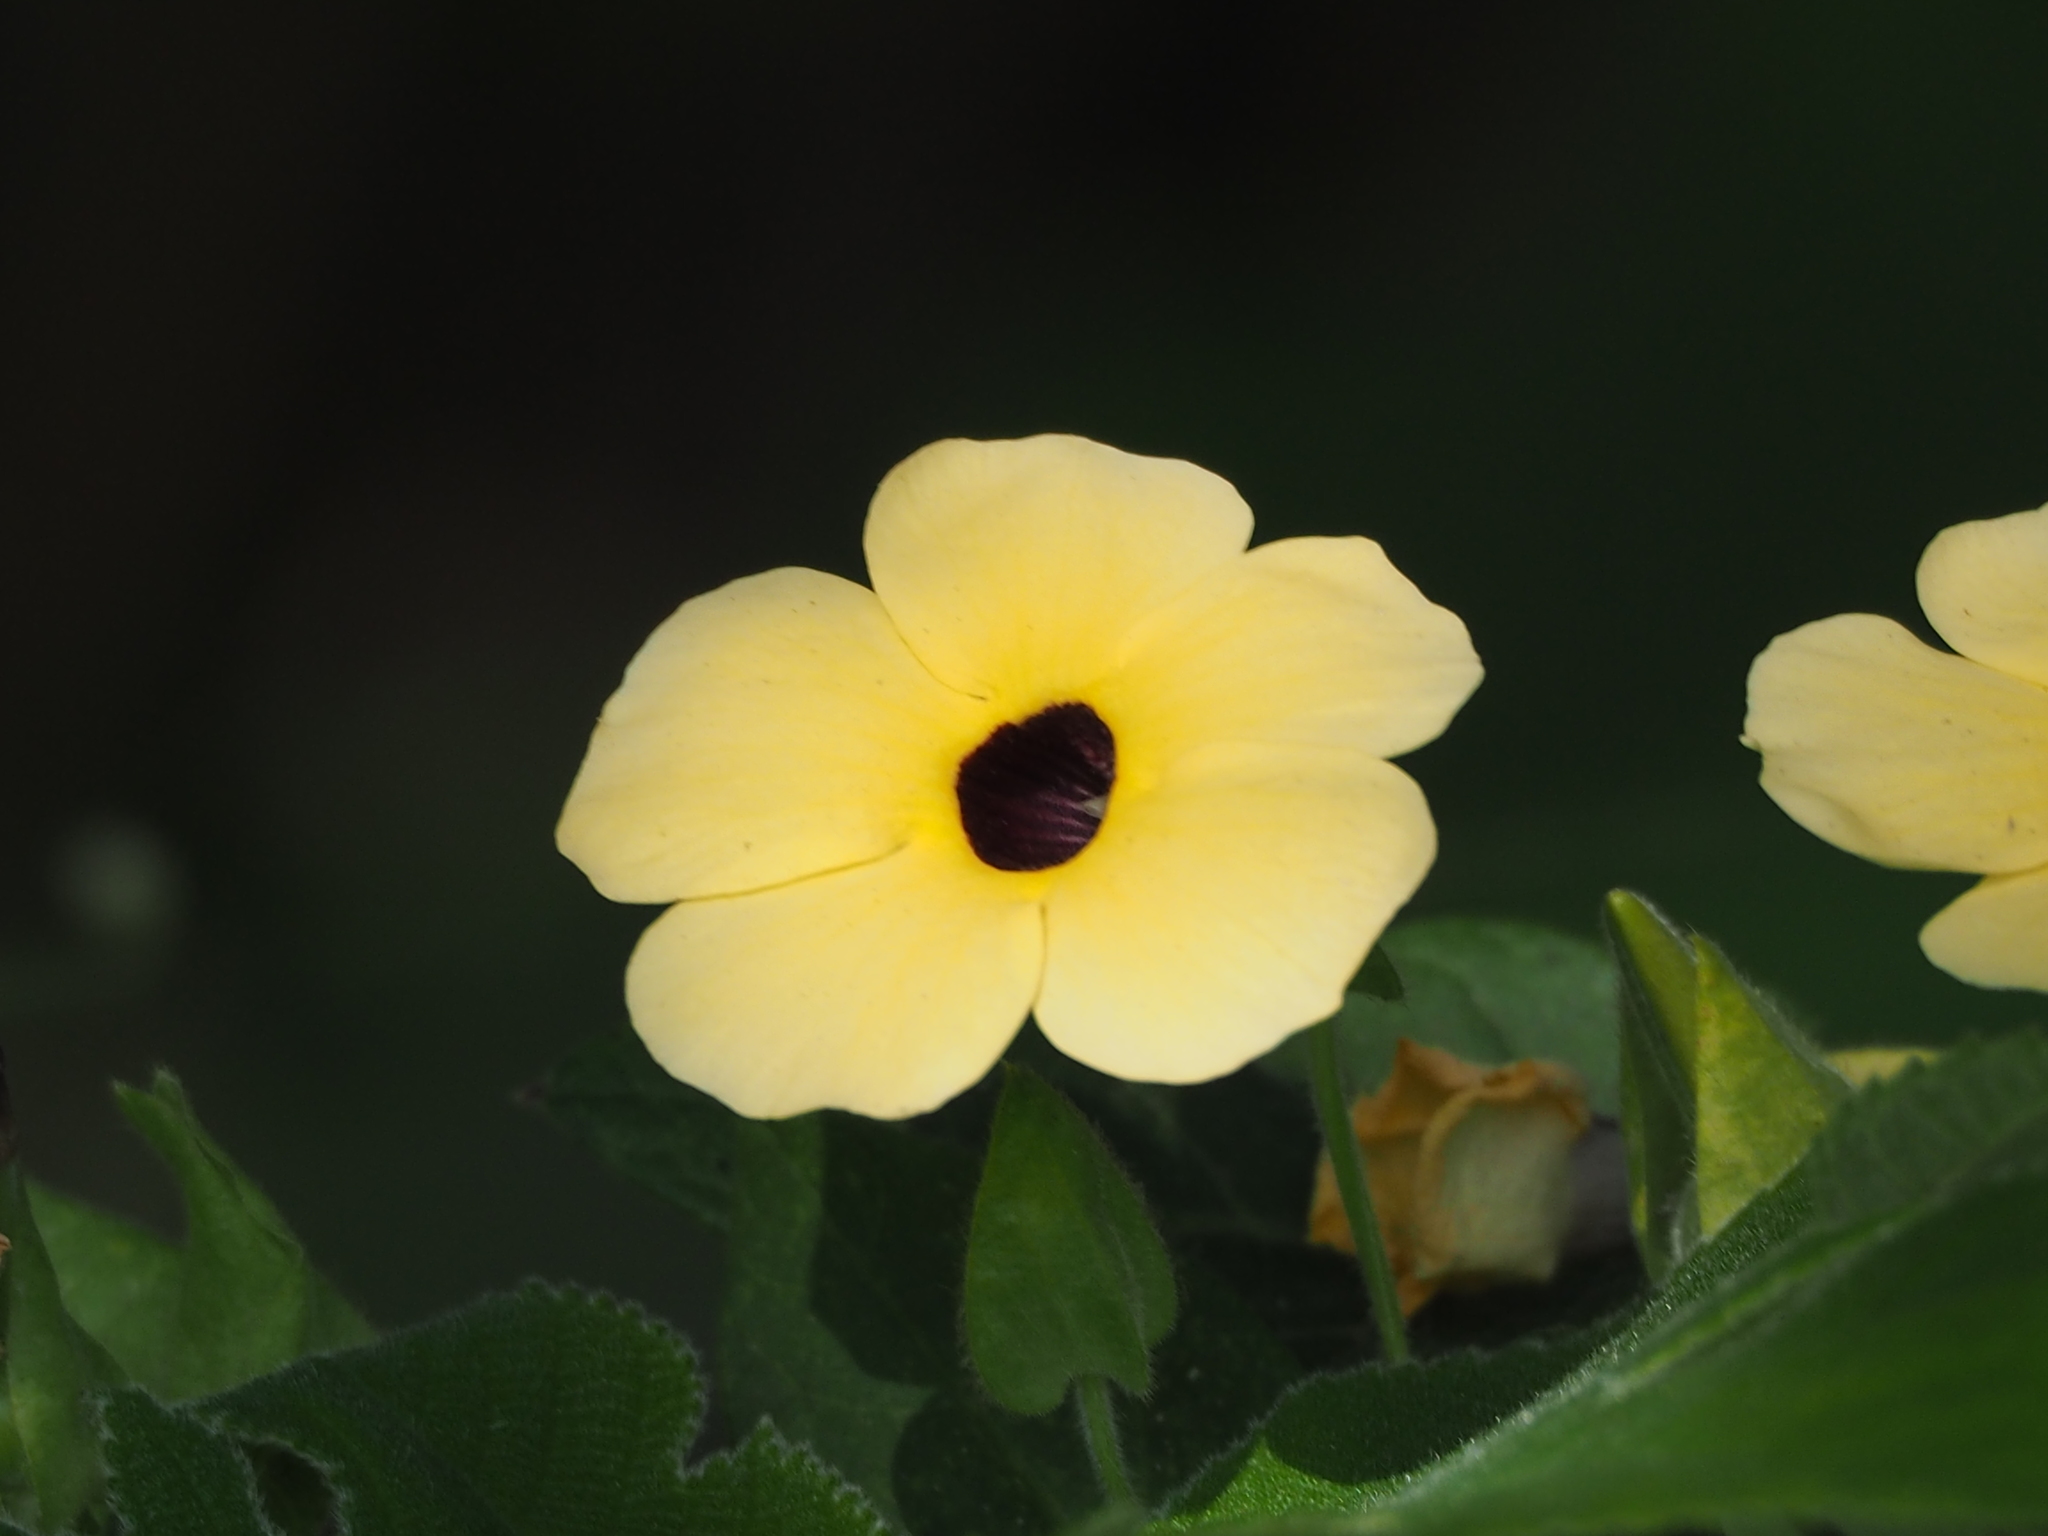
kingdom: Plantae
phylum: Tracheophyta
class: Magnoliopsida
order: Lamiales
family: Acanthaceae
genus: Thunbergia
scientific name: Thunbergia alata
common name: Blackeyed susan vine
